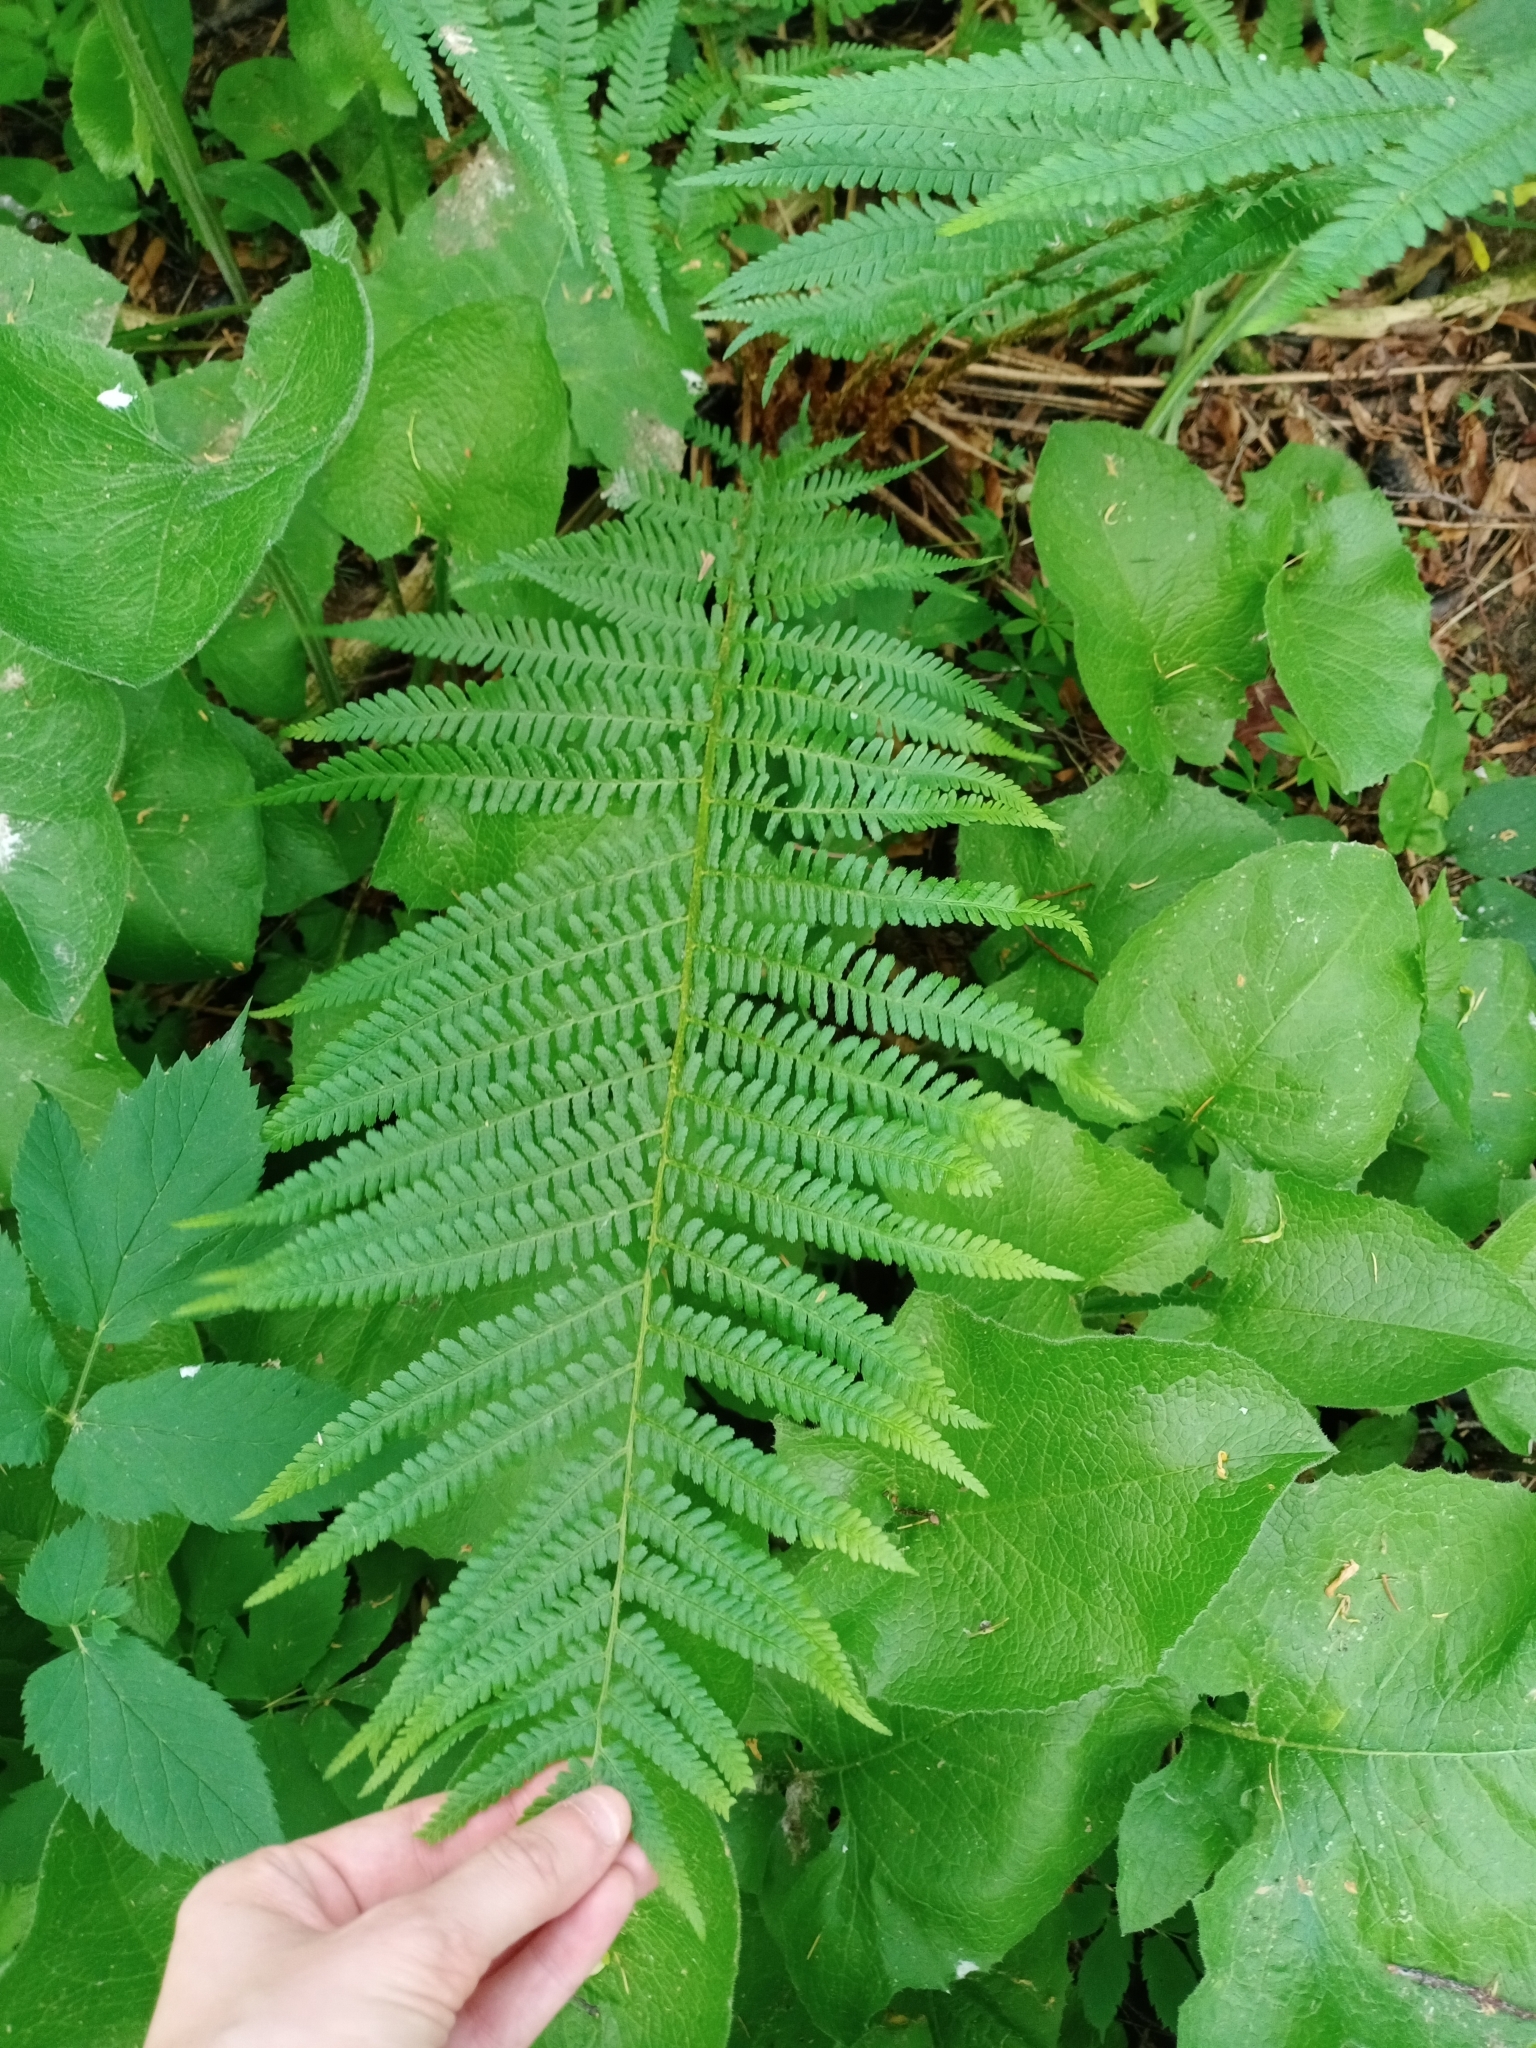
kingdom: Plantae
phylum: Tracheophyta
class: Polypodiopsida
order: Polypodiales
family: Dryopteridaceae
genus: Dryopteris
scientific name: Dryopteris filix-mas
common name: Male fern
